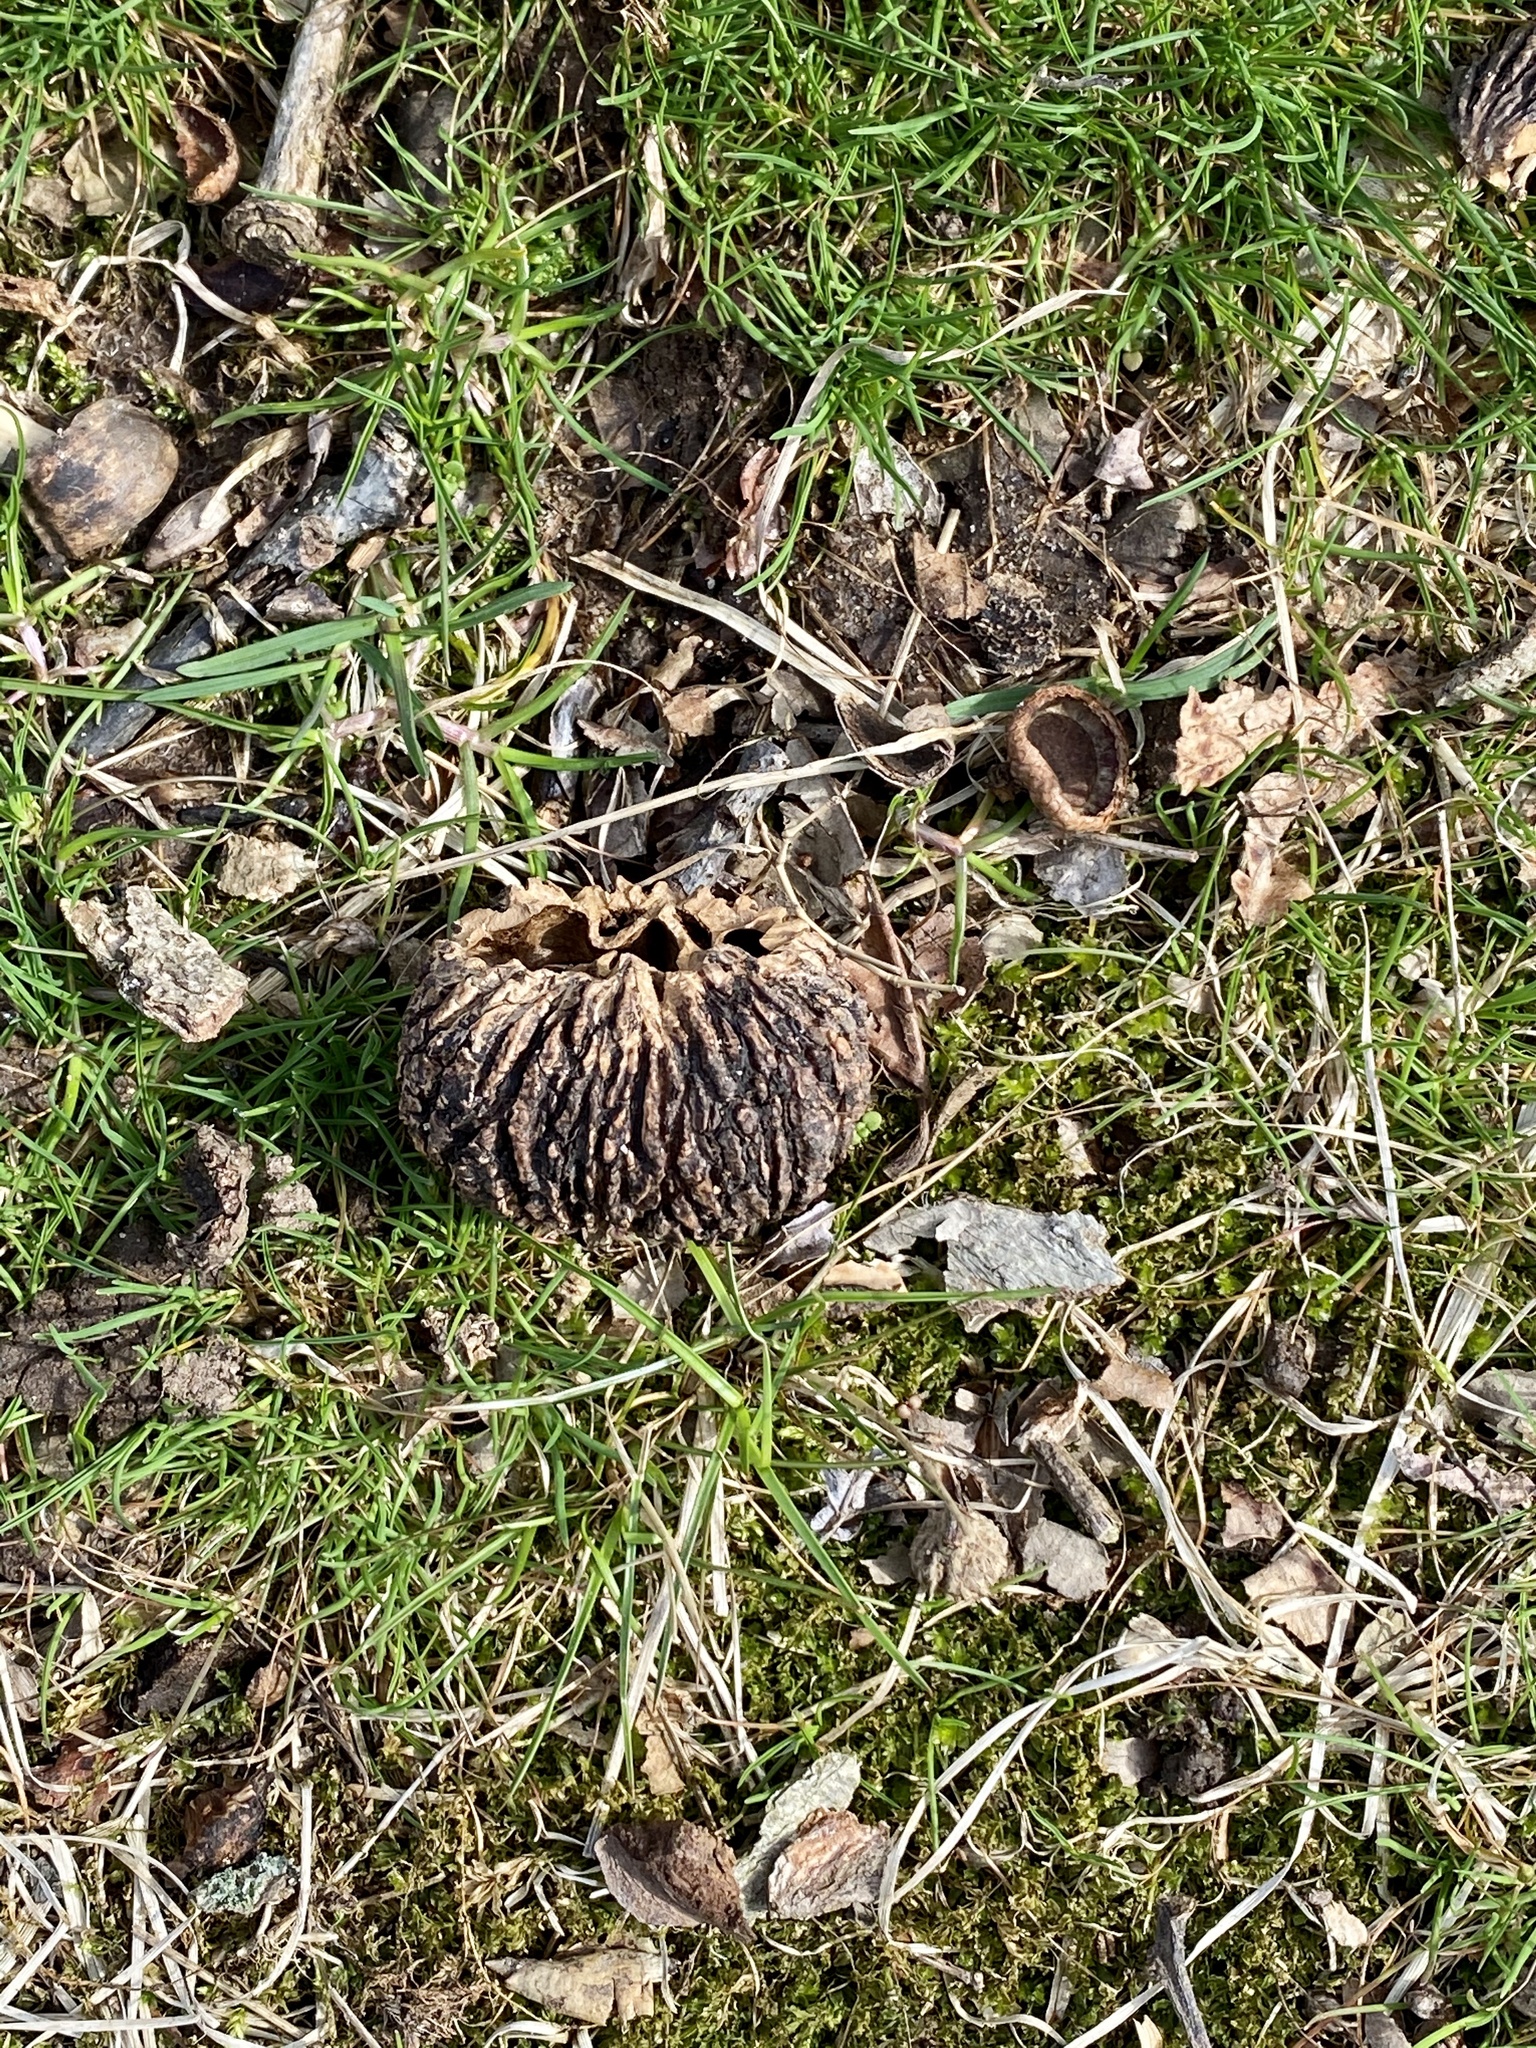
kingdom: Plantae
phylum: Tracheophyta
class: Magnoliopsida
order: Fagales
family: Juglandaceae
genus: Juglans
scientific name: Juglans nigra
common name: Black walnut
